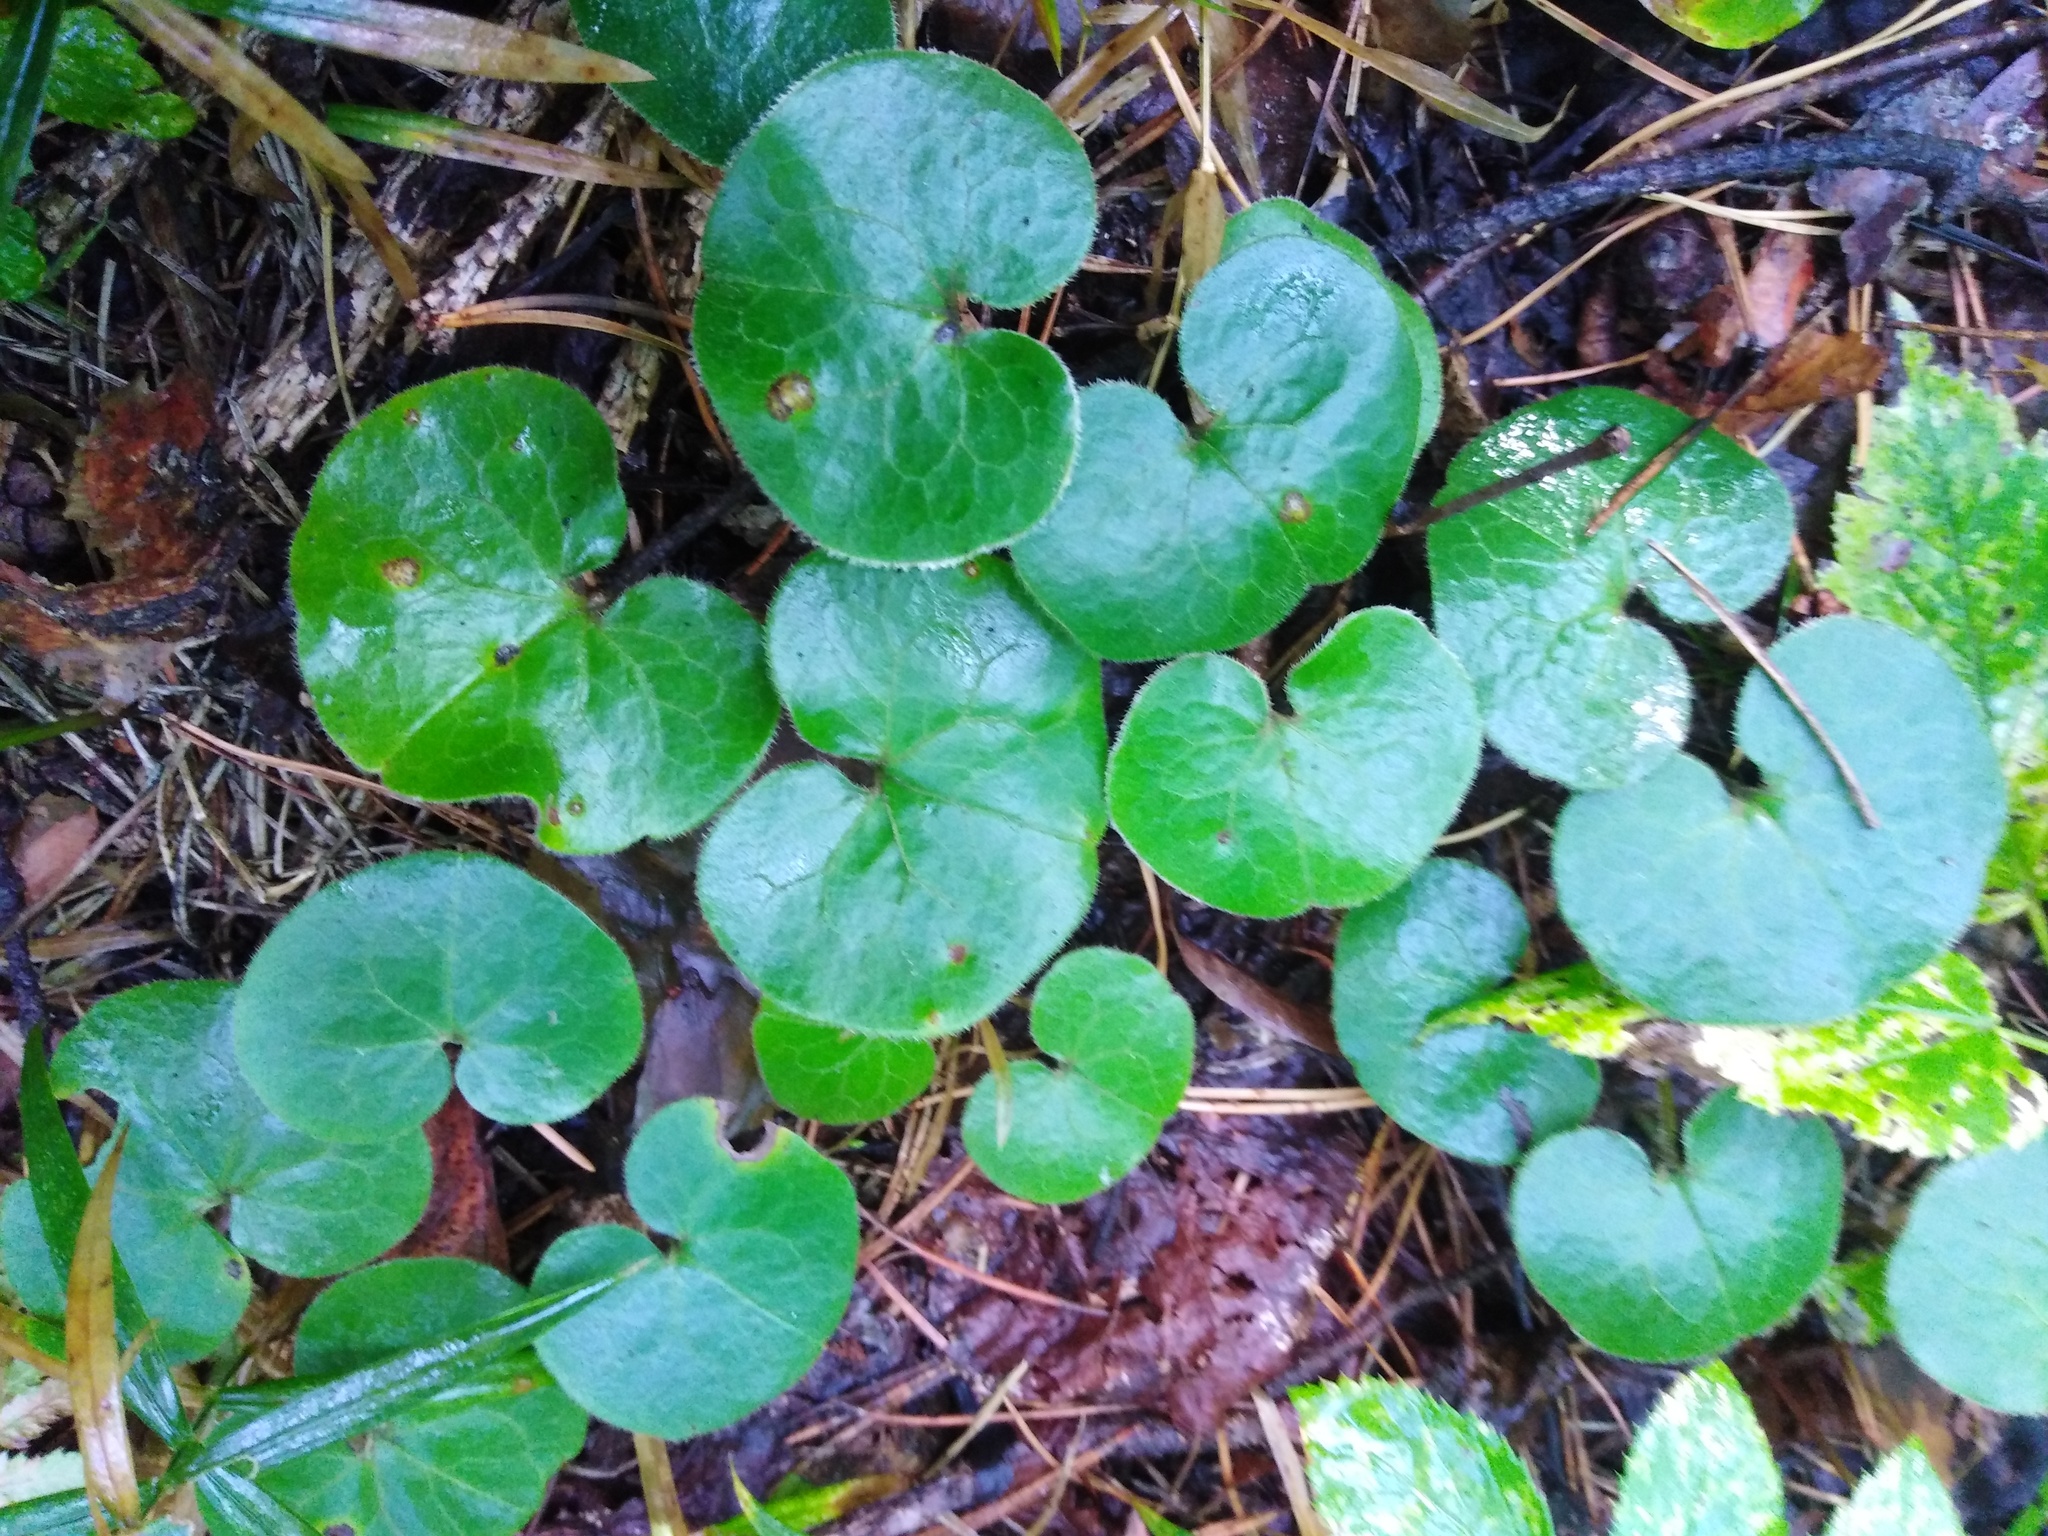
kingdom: Plantae
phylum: Tracheophyta
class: Magnoliopsida
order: Piperales
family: Aristolochiaceae
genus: Asarum
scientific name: Asarum europaeum
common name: Asarabacca
